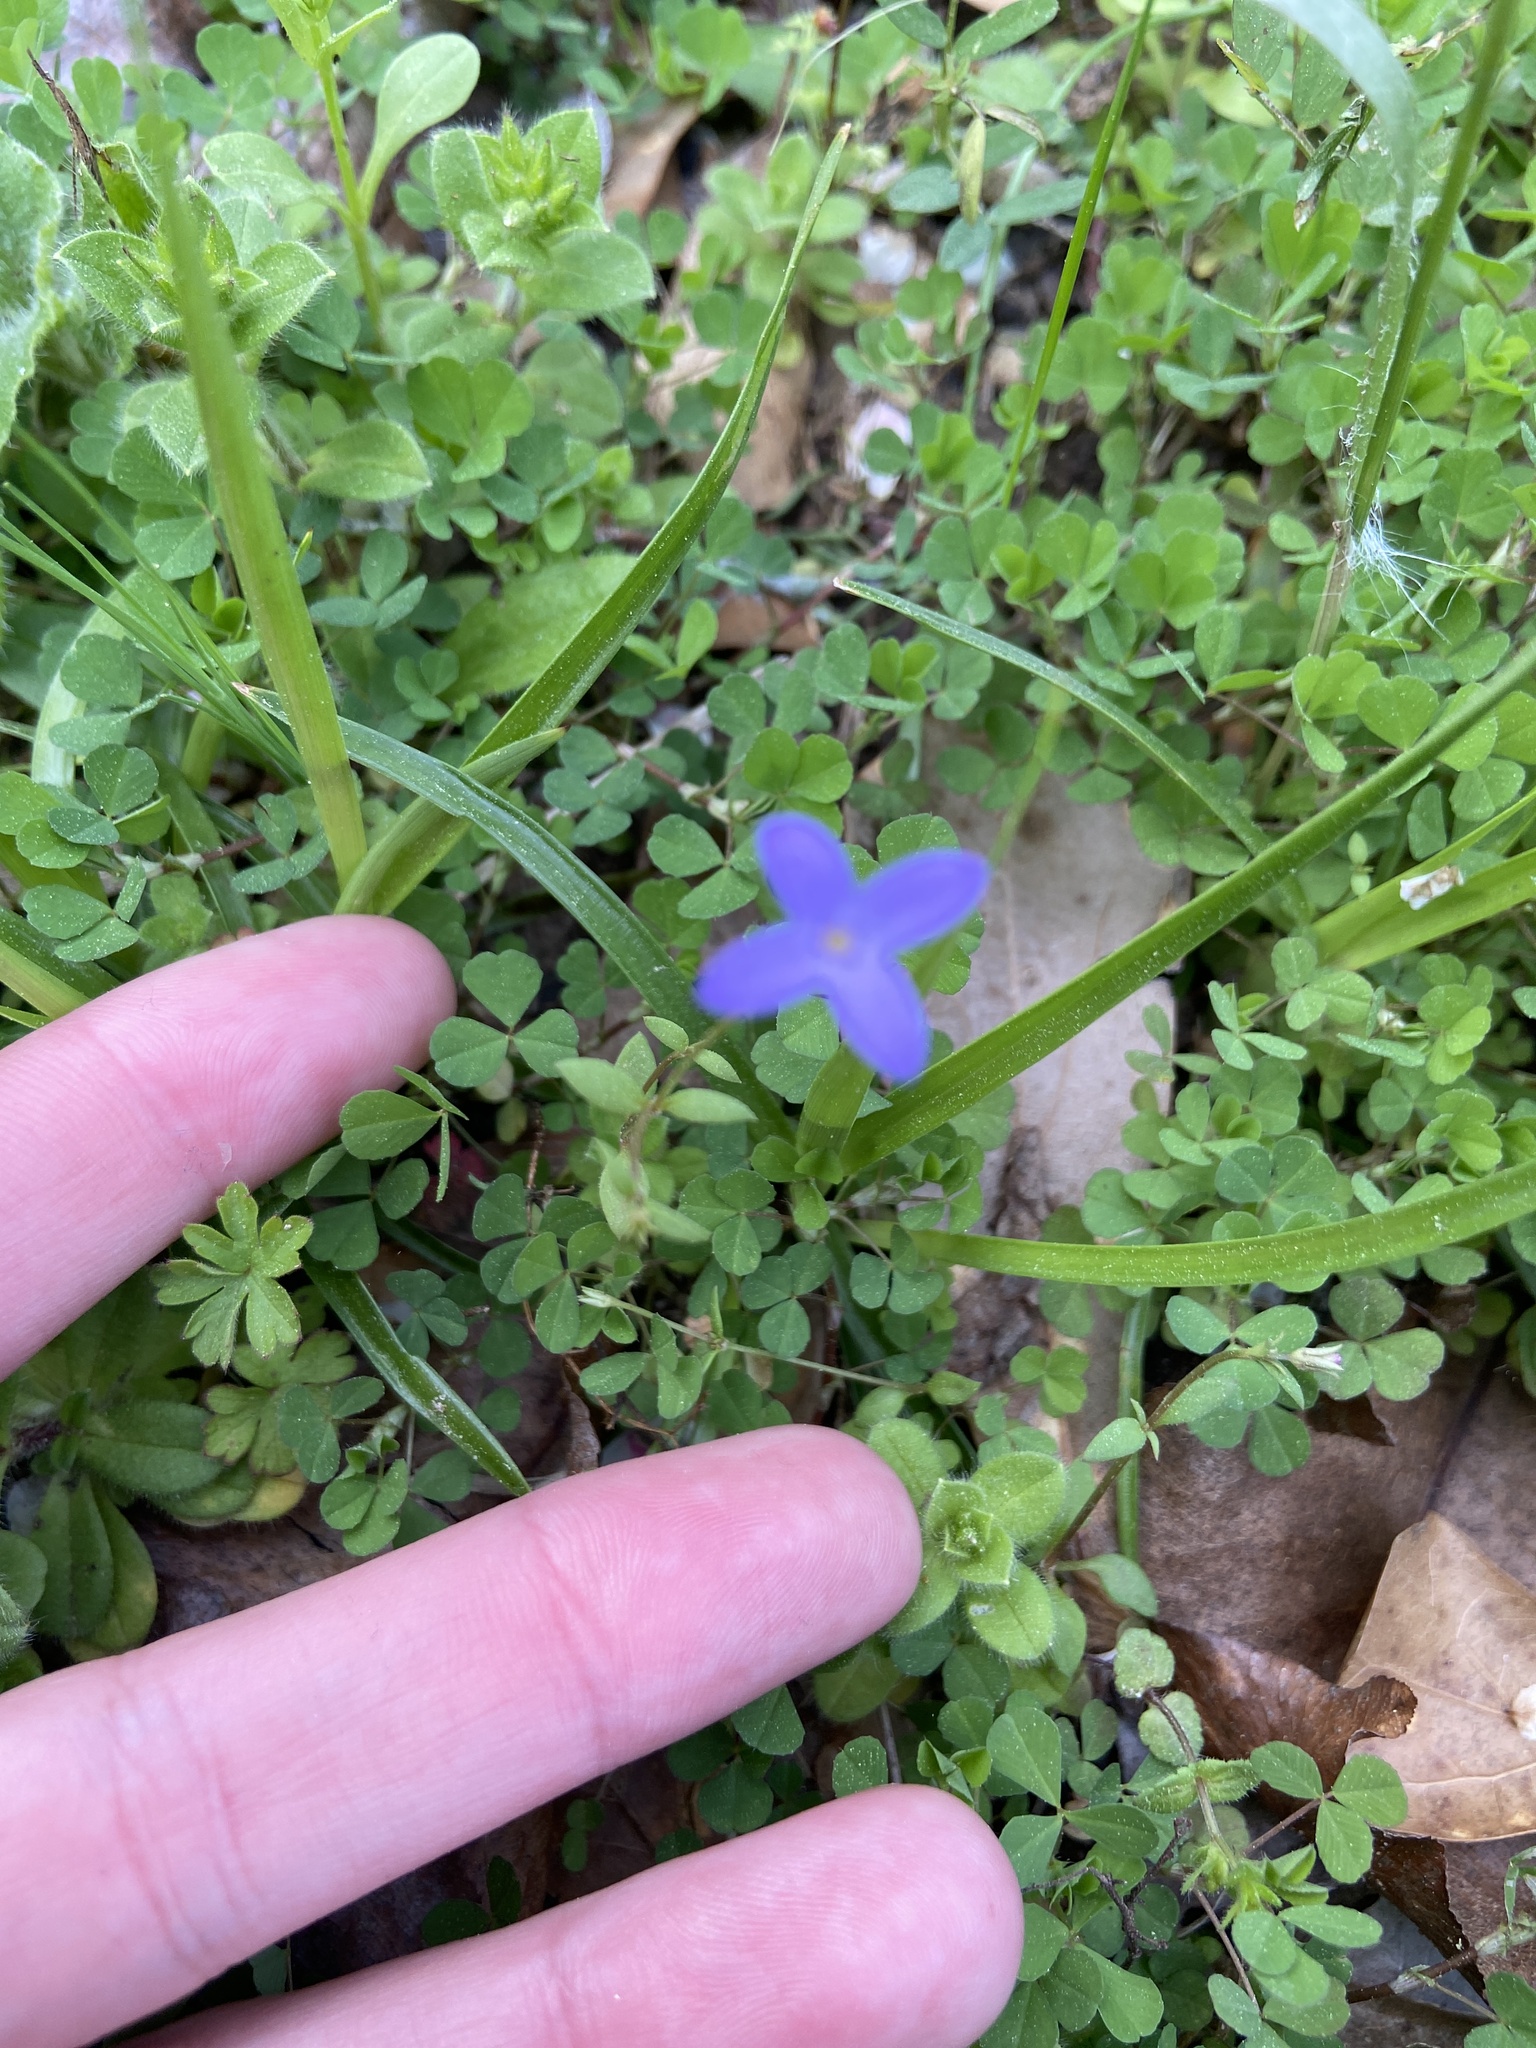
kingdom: Plantae
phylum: Tracheophyta
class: Magnoliopsida
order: Gentianales
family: Rubiaceae
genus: Houstonia
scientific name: Houstonia pusilla
